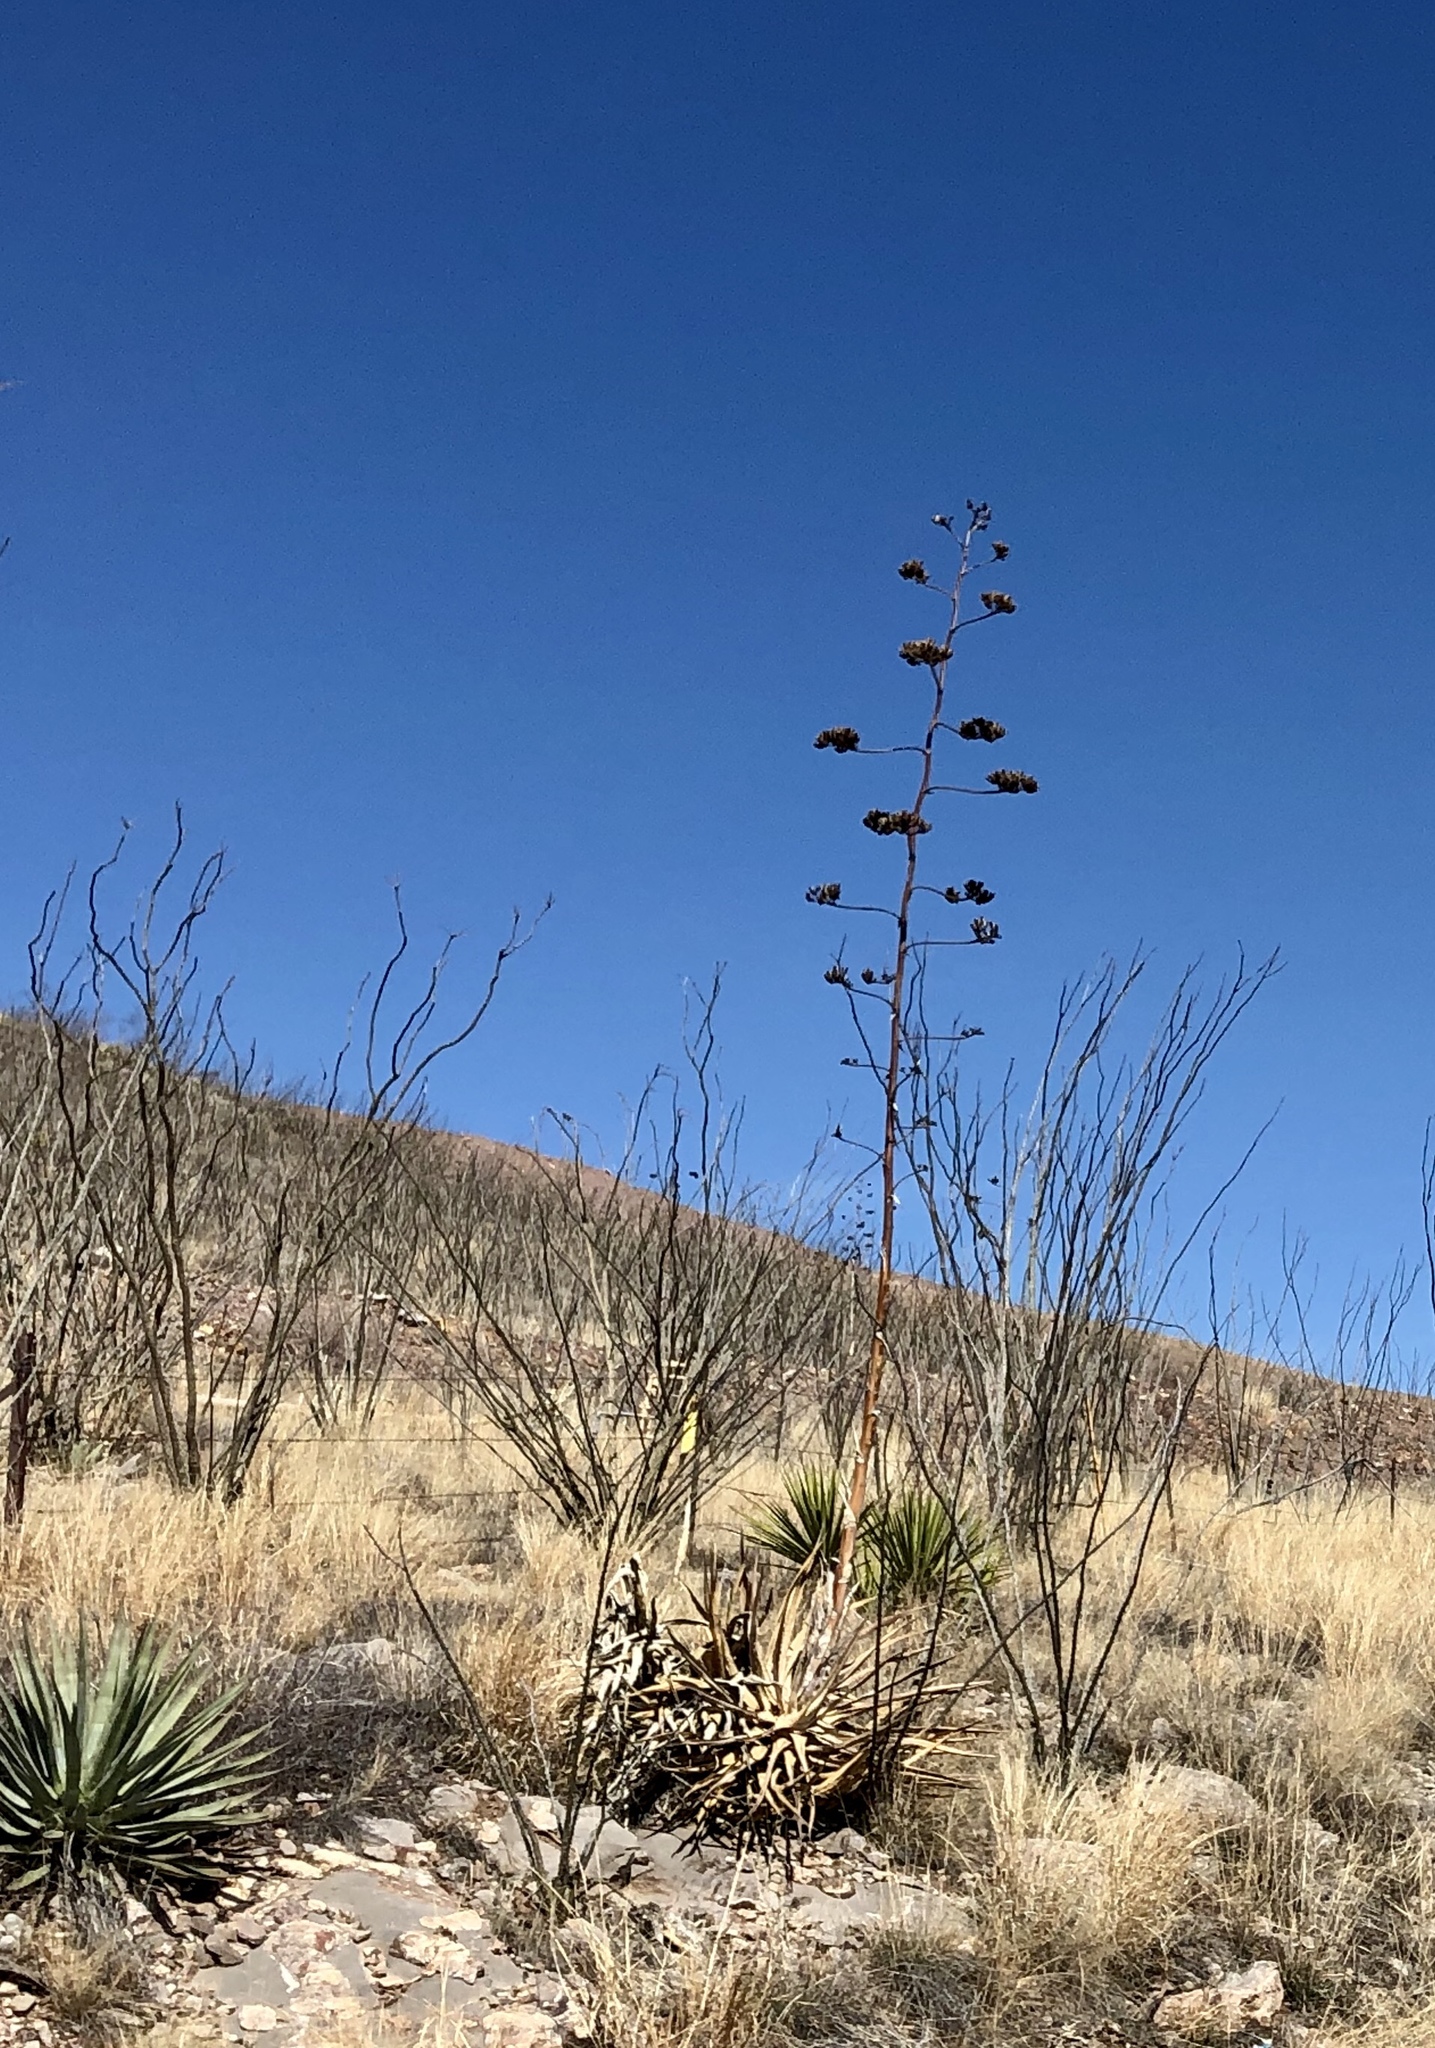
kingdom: Plantae
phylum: Tracheophyta
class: Liliopsida
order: Asparagales
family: Asparagaceae
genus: Agave
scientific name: Agave palmeri
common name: Palmer agave
